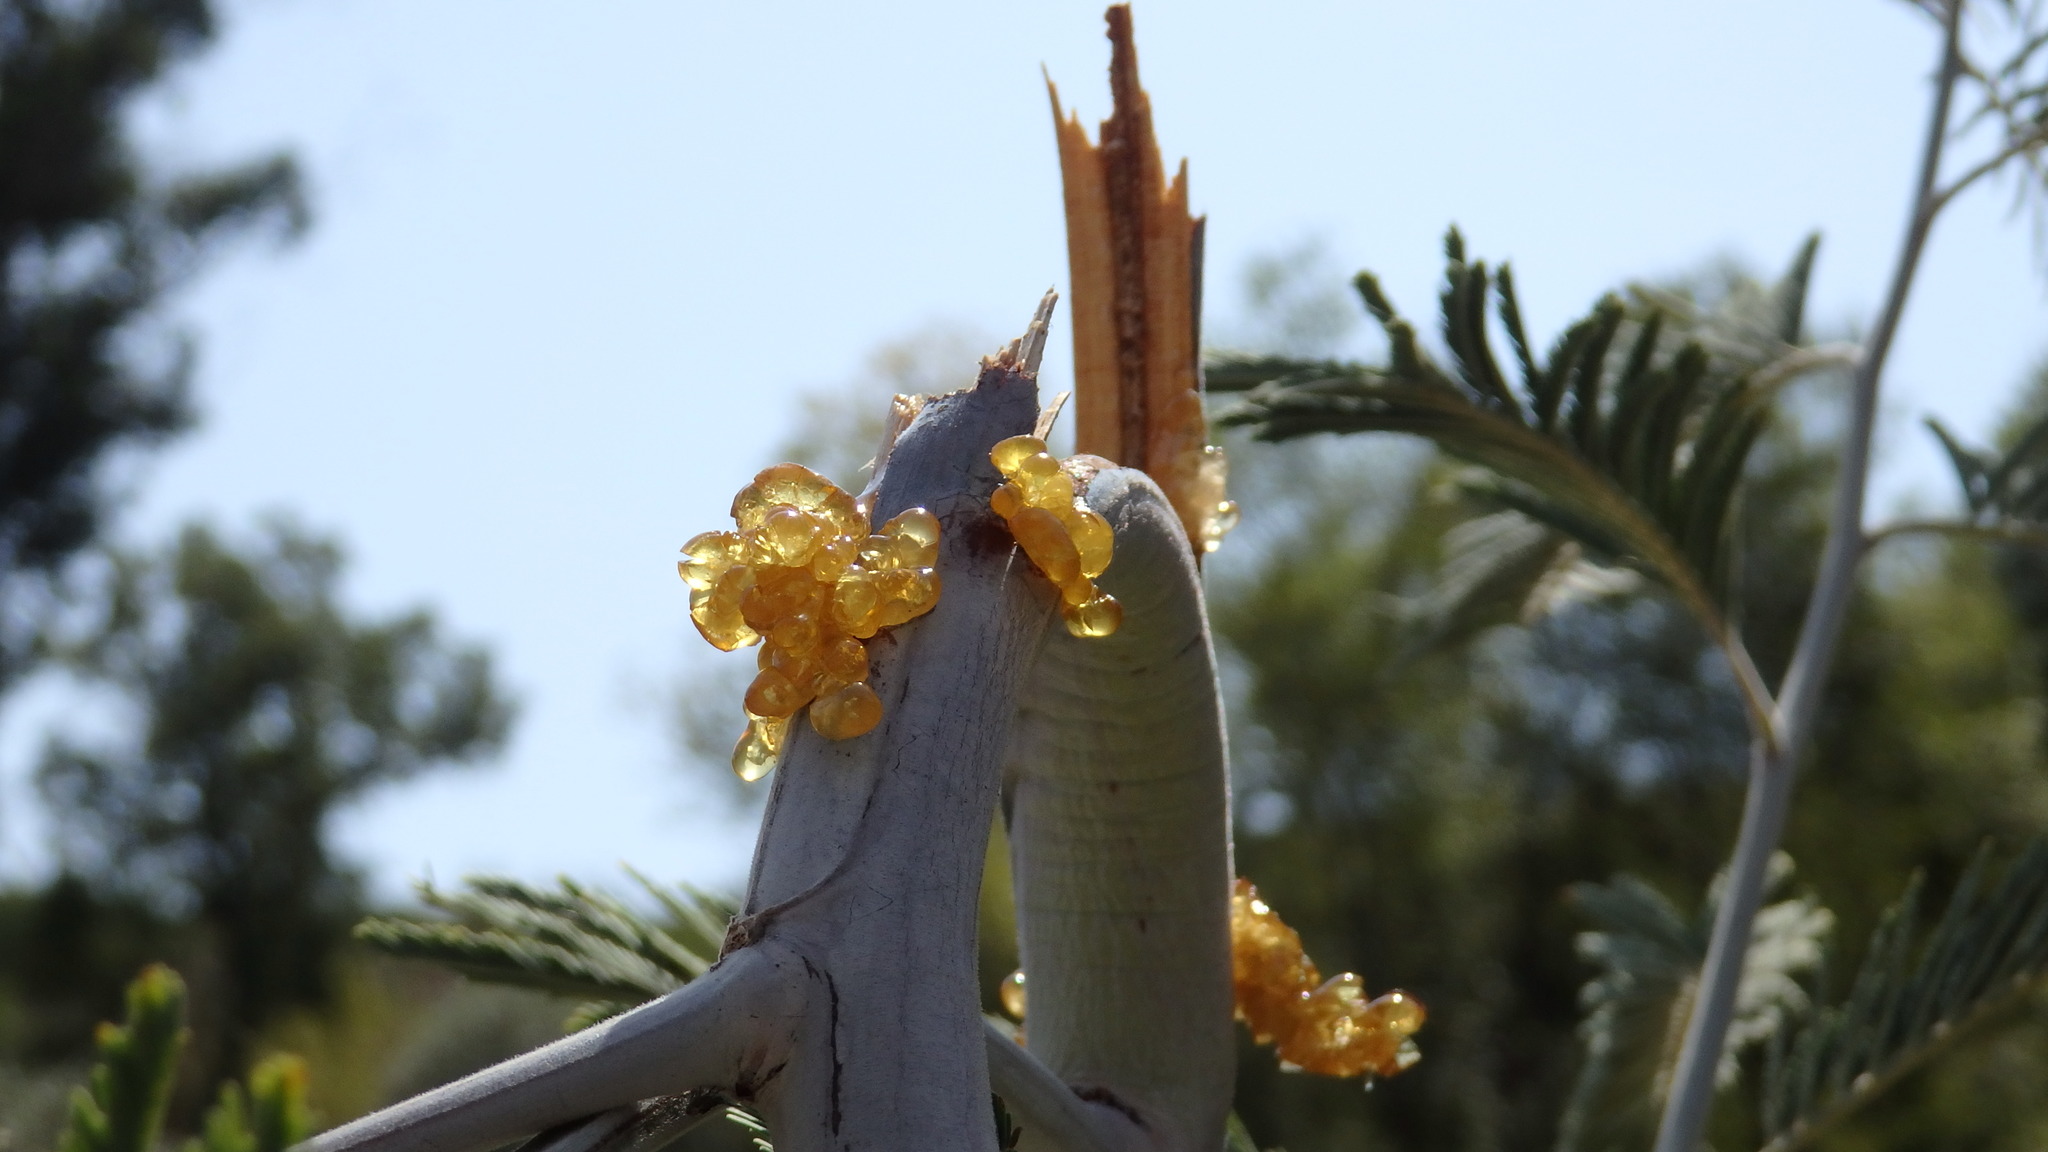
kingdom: Plantae
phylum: Tracheophyta
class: Magnoliopsida
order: Fabales
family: Fabaceae
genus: Acacia
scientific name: Acacia dealbata
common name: Silver wattle
